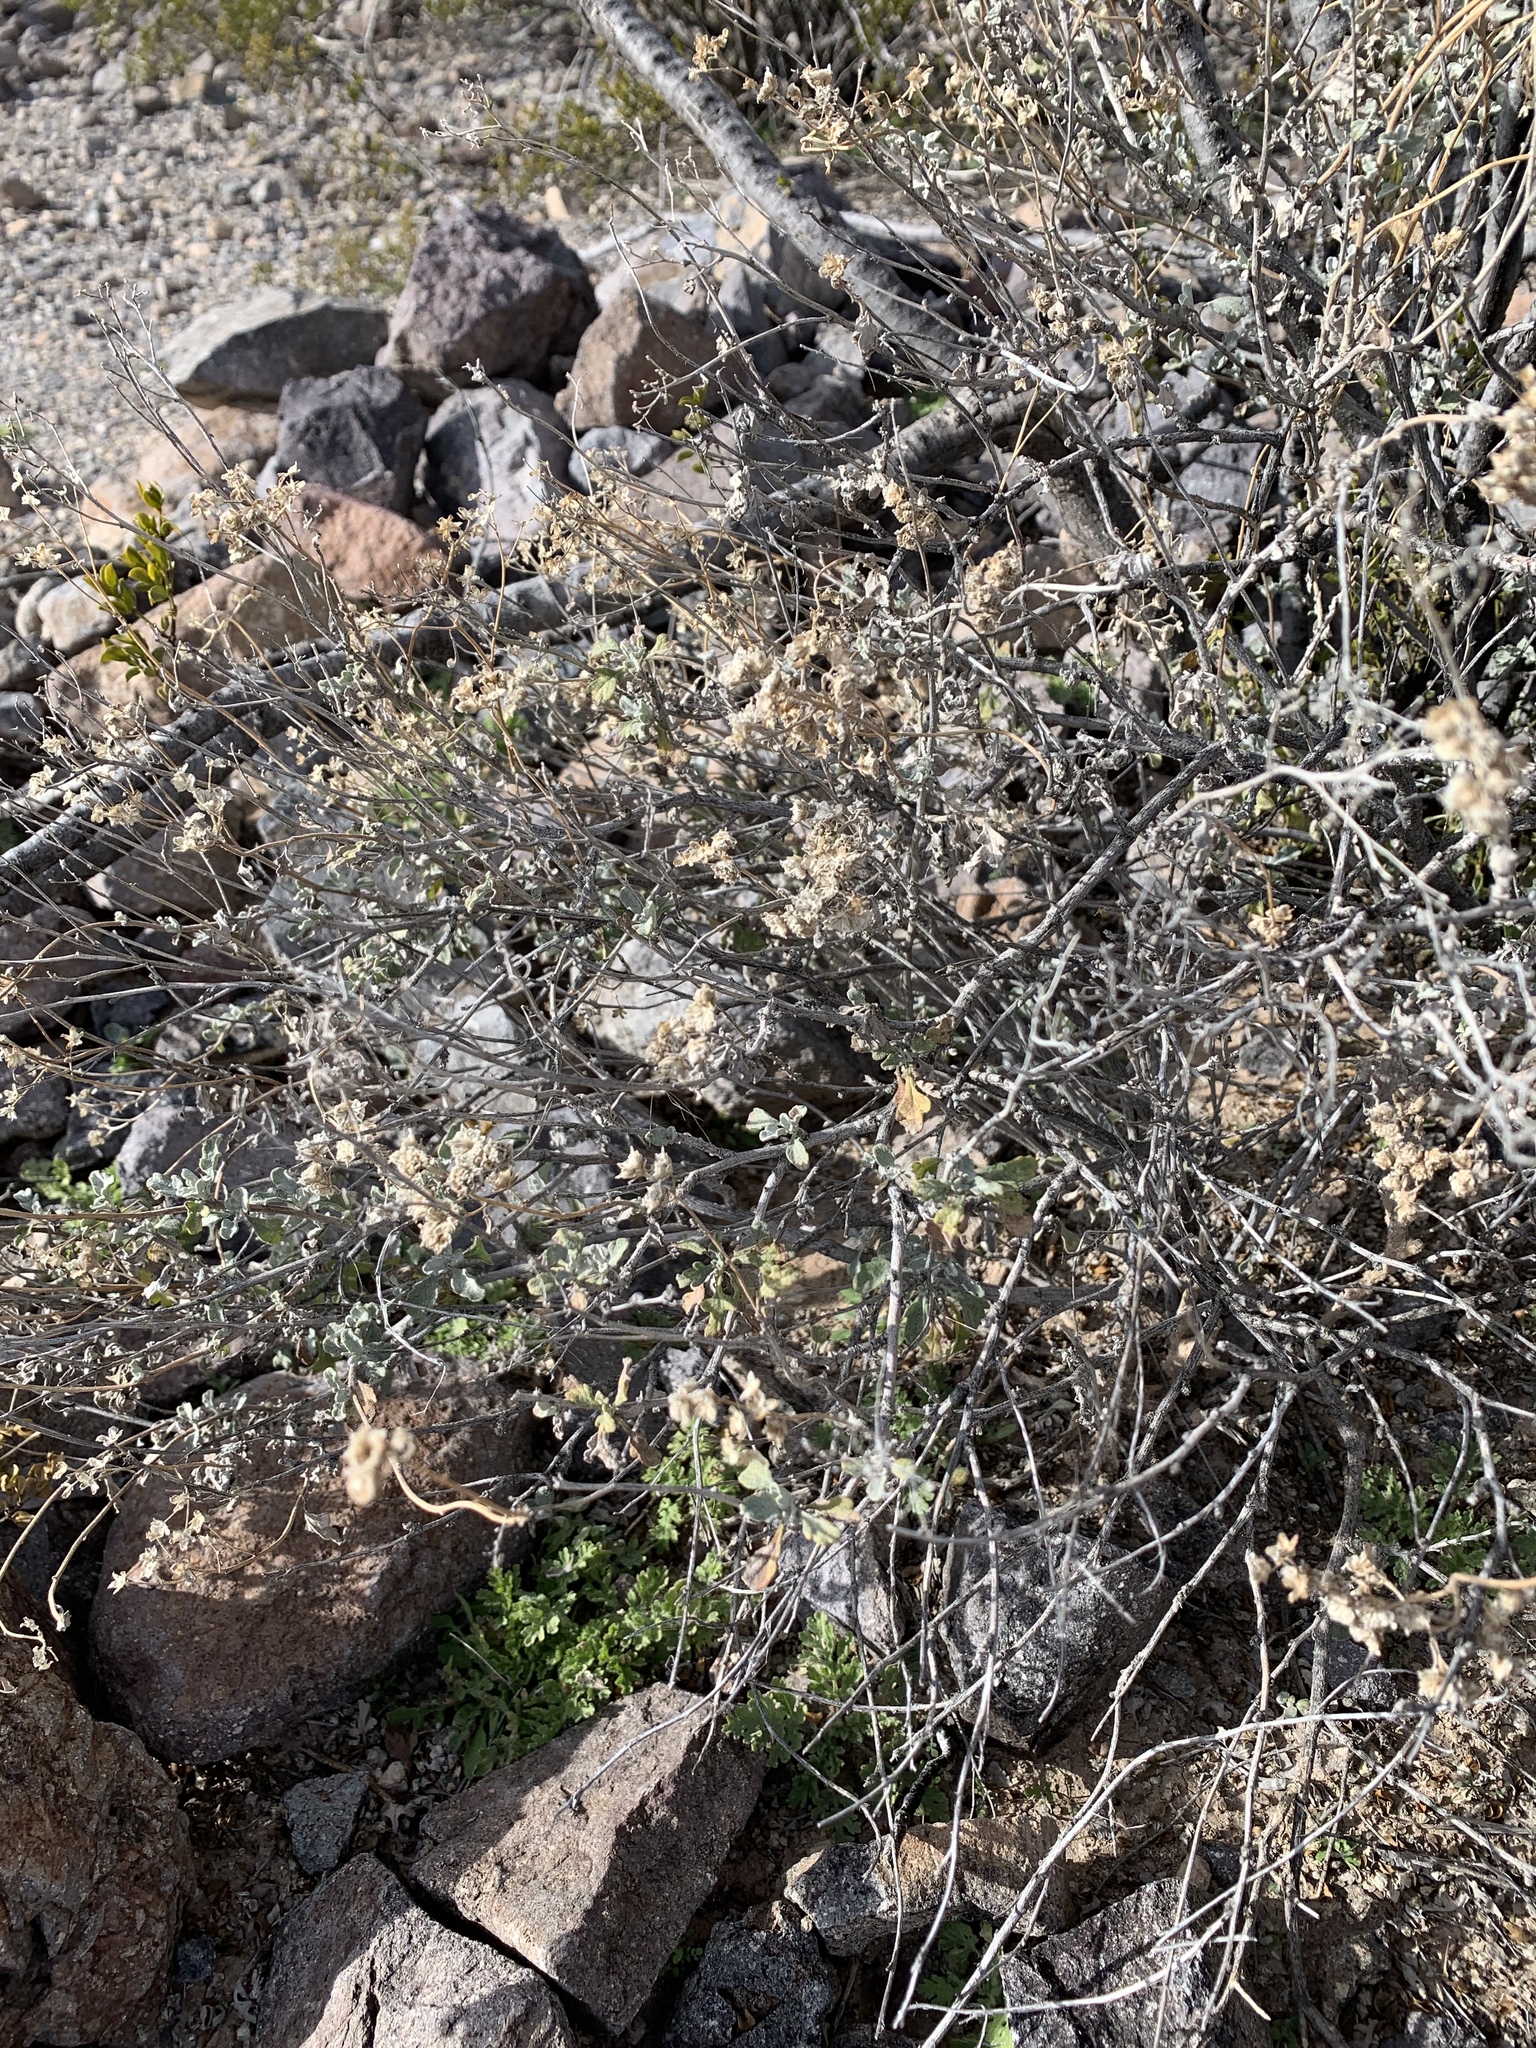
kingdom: Plantae
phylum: Tracheophyta
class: Magnoliopsida
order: Asterales
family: Asteraceae
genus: Parthenium
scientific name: Parthenium incanum
